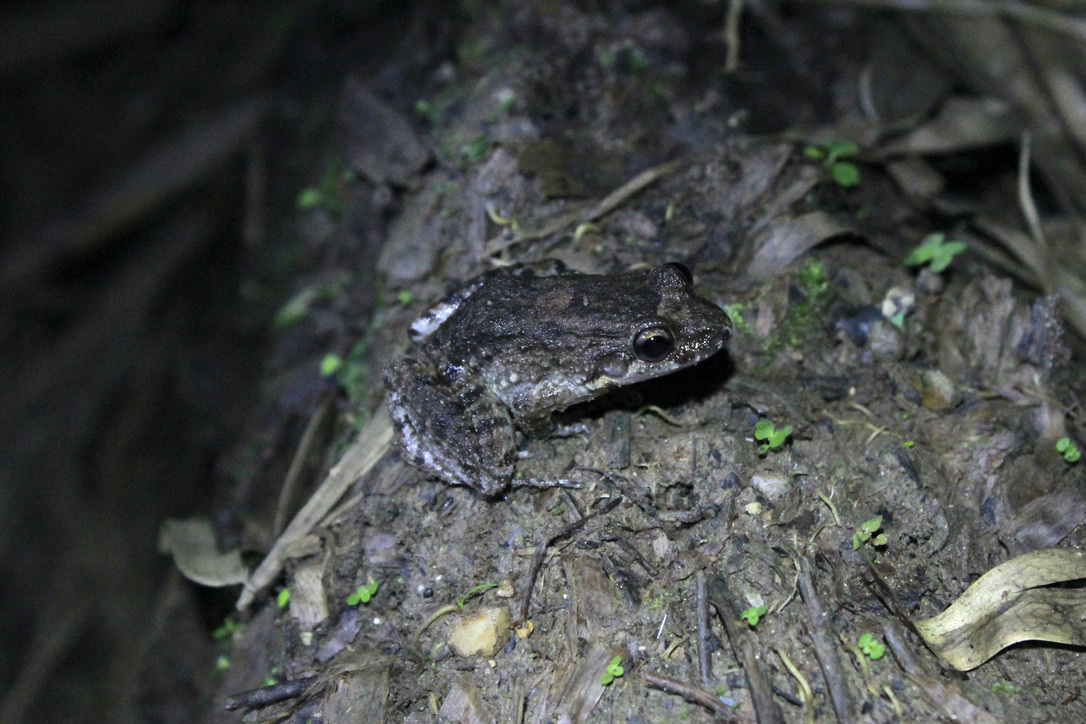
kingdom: Animalia
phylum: Chordata
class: Amphibia
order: Anura
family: Leptodactylidae
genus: Leptodactylus
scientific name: Leptodactylus validus
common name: Smooth-skinned ditch frog
